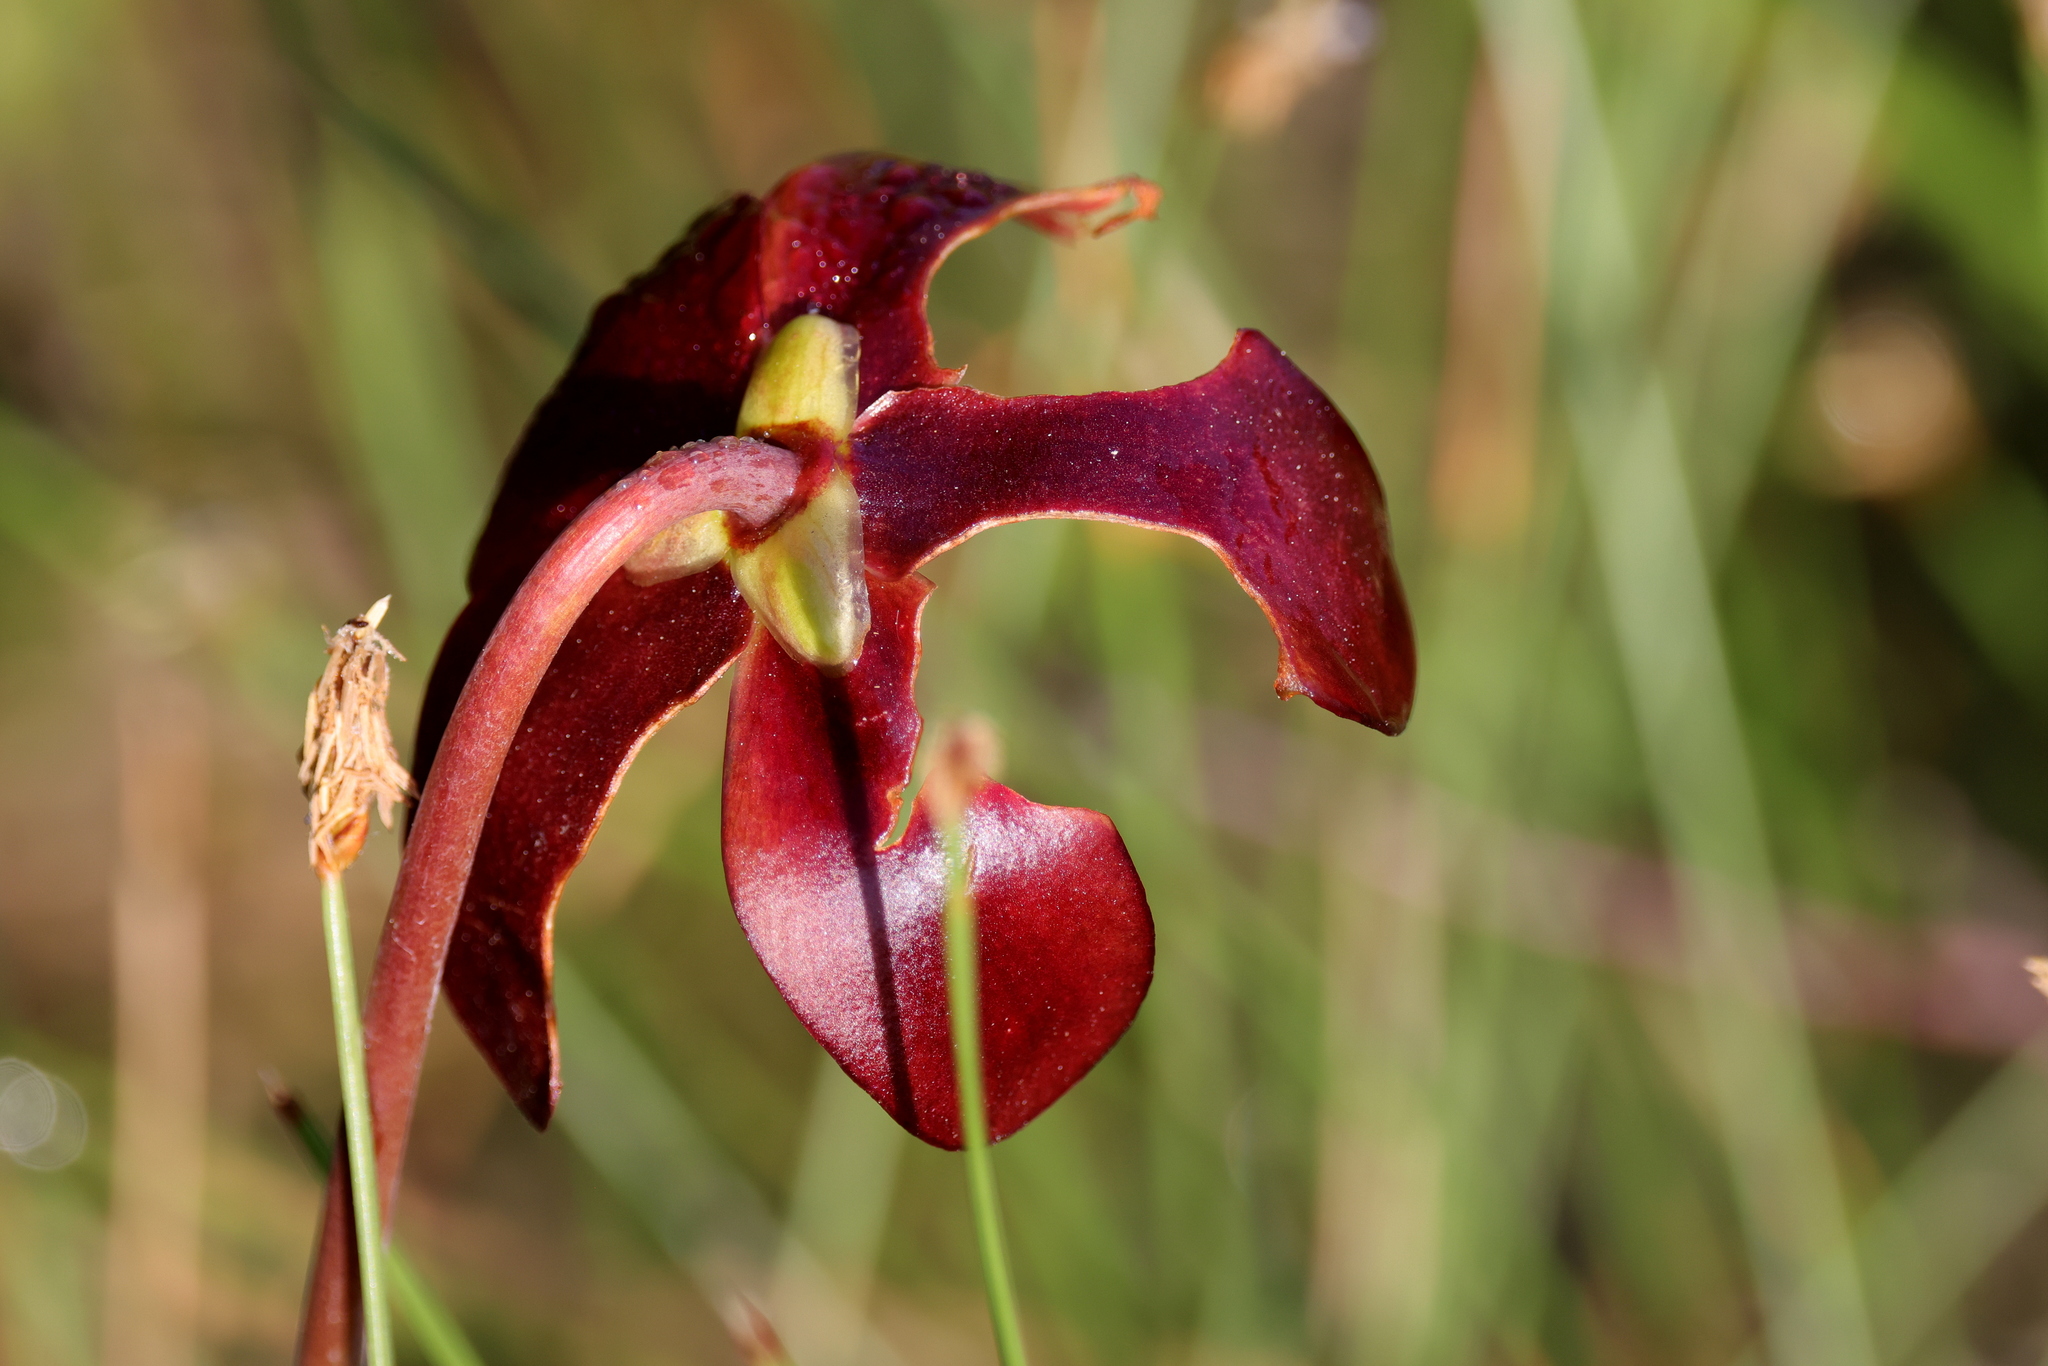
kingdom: Plantae
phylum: Tracheophyta
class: Magnoliopsida
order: Ericales
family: Sarraceniaceae
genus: Sarracenia
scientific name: Sarracenia purpurea
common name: Pitcherplant
